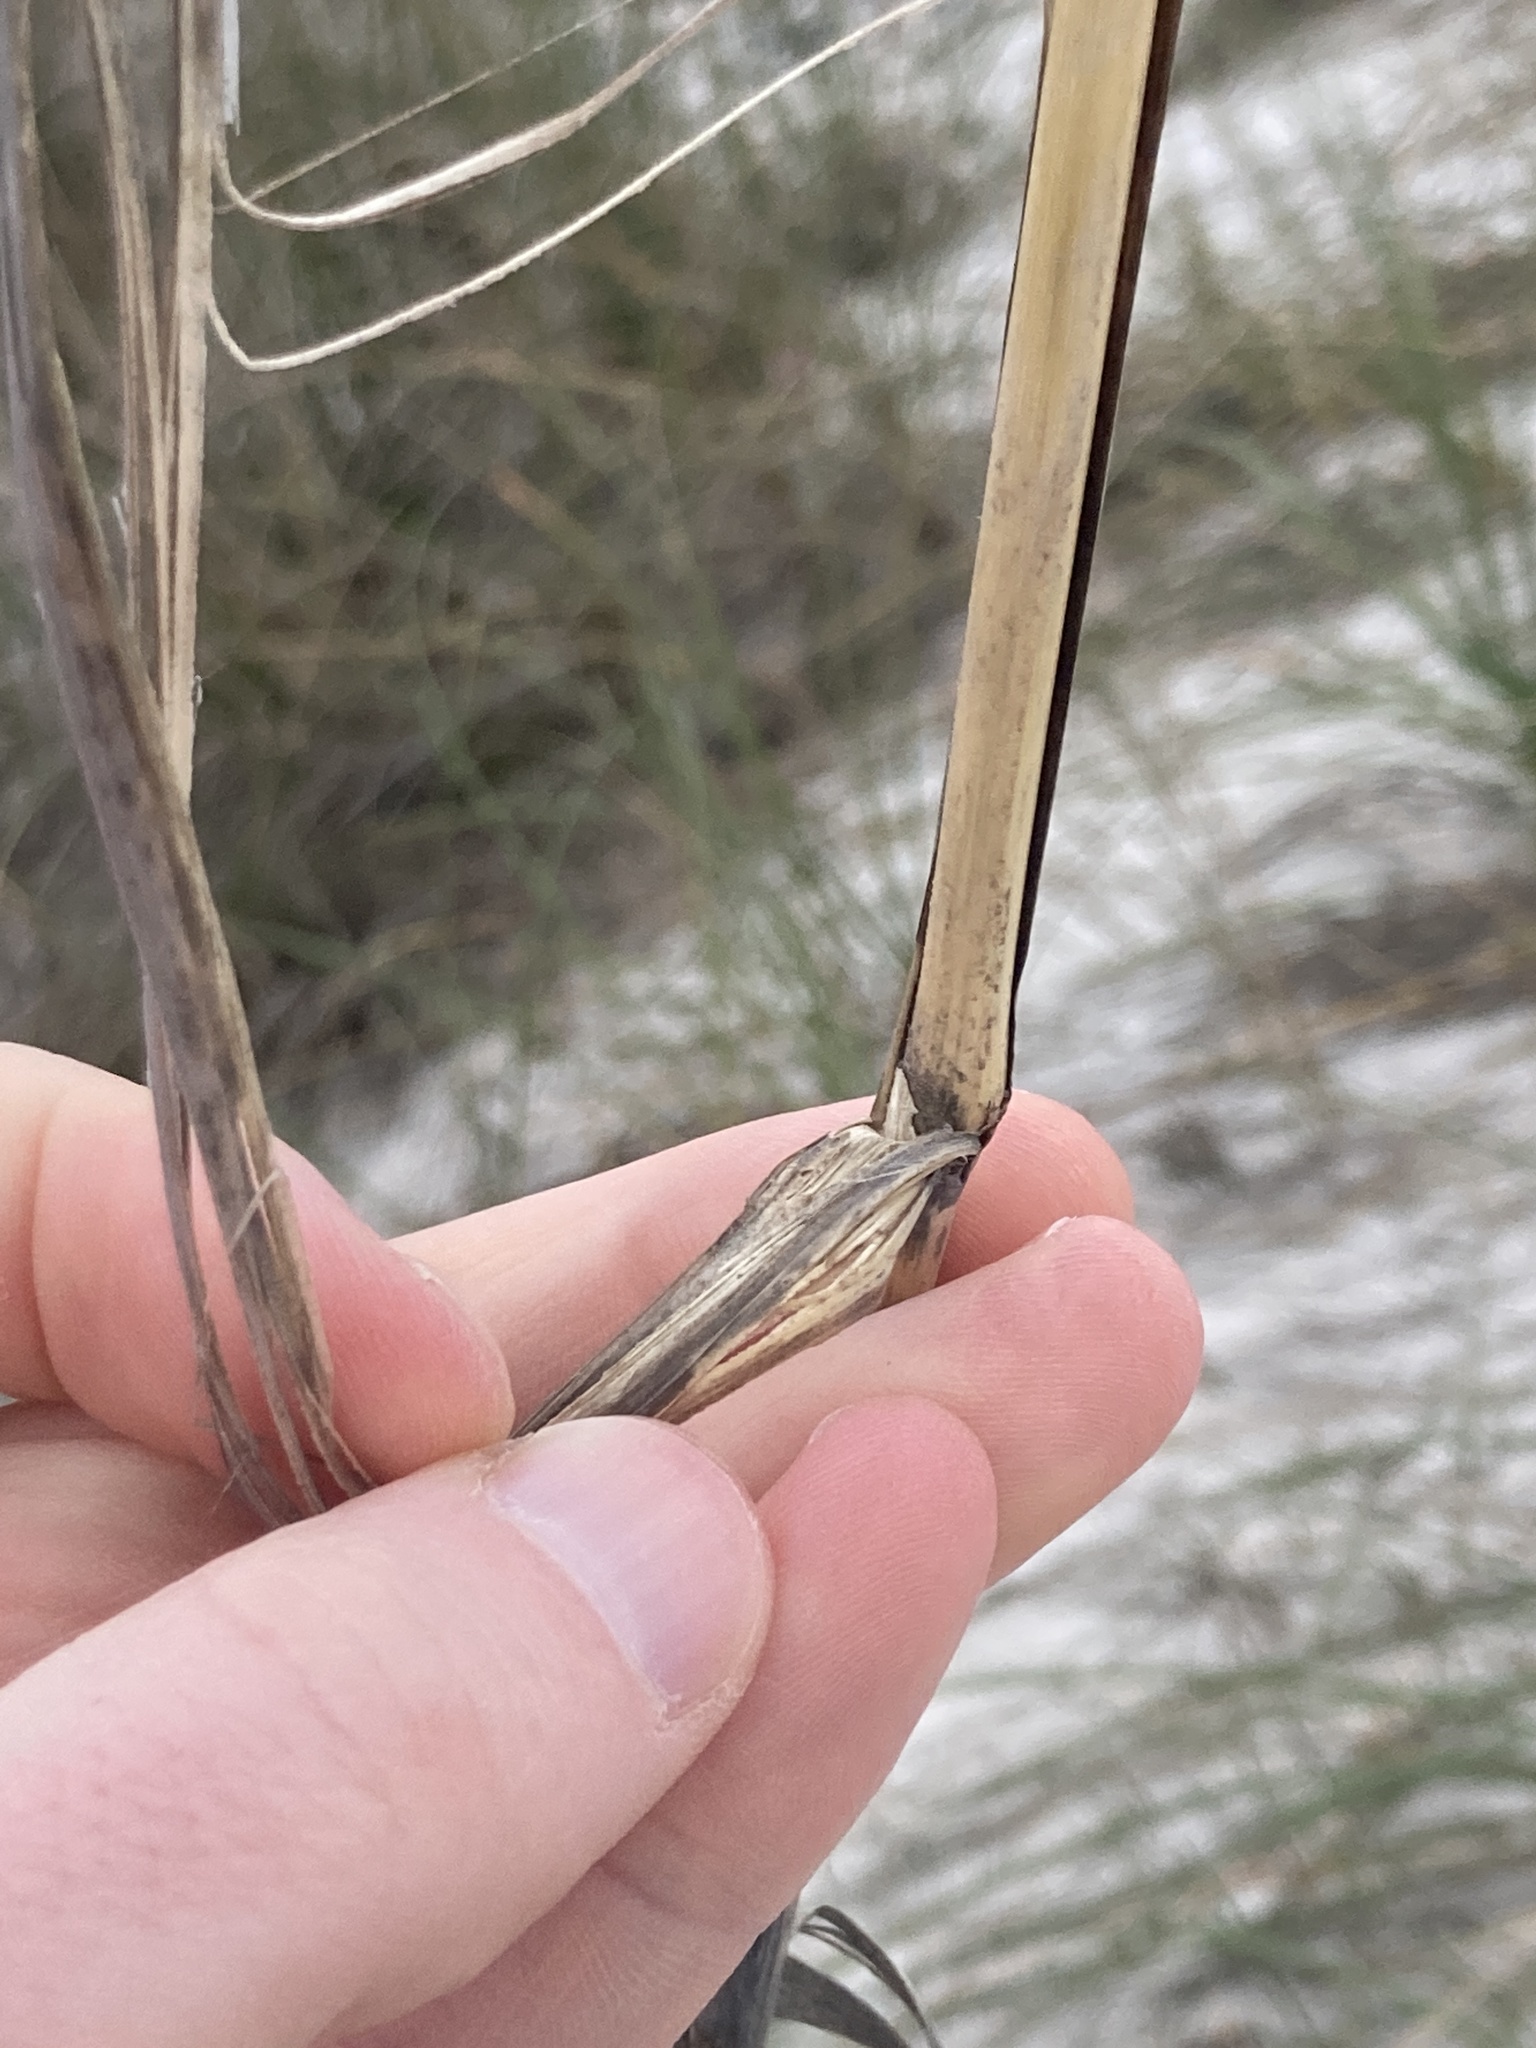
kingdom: Plantae
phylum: Tracheophyta
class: Liliopsida
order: Poales
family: Poaceae
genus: Uniola
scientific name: Uniola paniculata
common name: Seaside-oats
